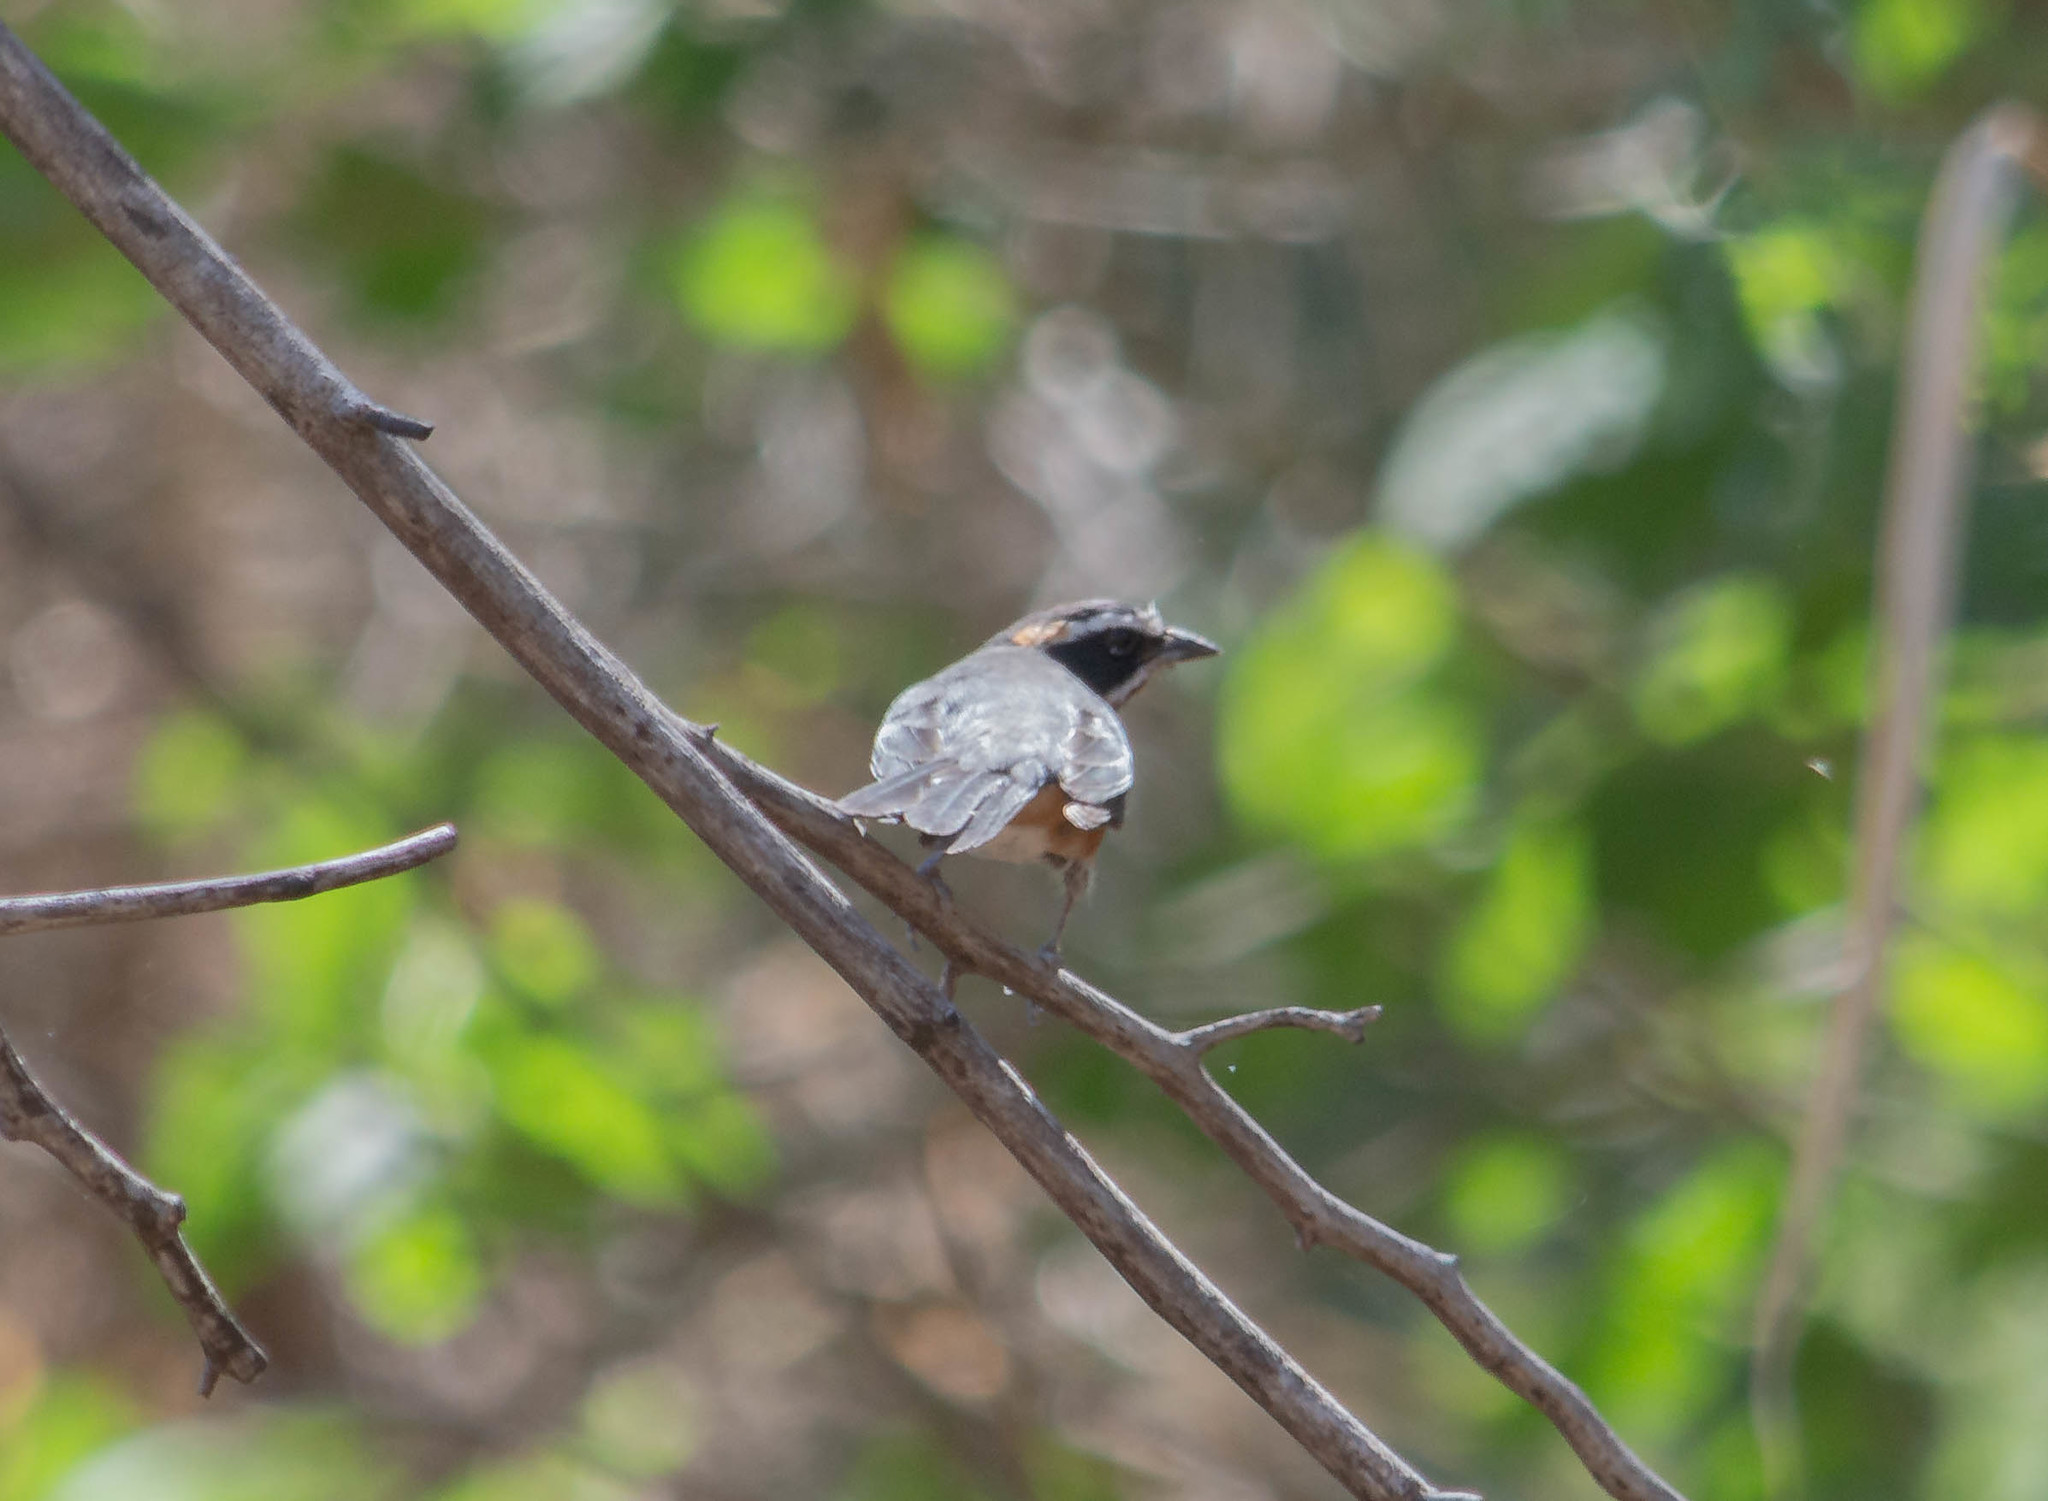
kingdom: Animalia
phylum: Chordata
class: Aves
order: Passeriformes
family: Thraupidae
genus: Poospiza
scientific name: Poospiza whitii
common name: Black-and-chestnut warbling finch
